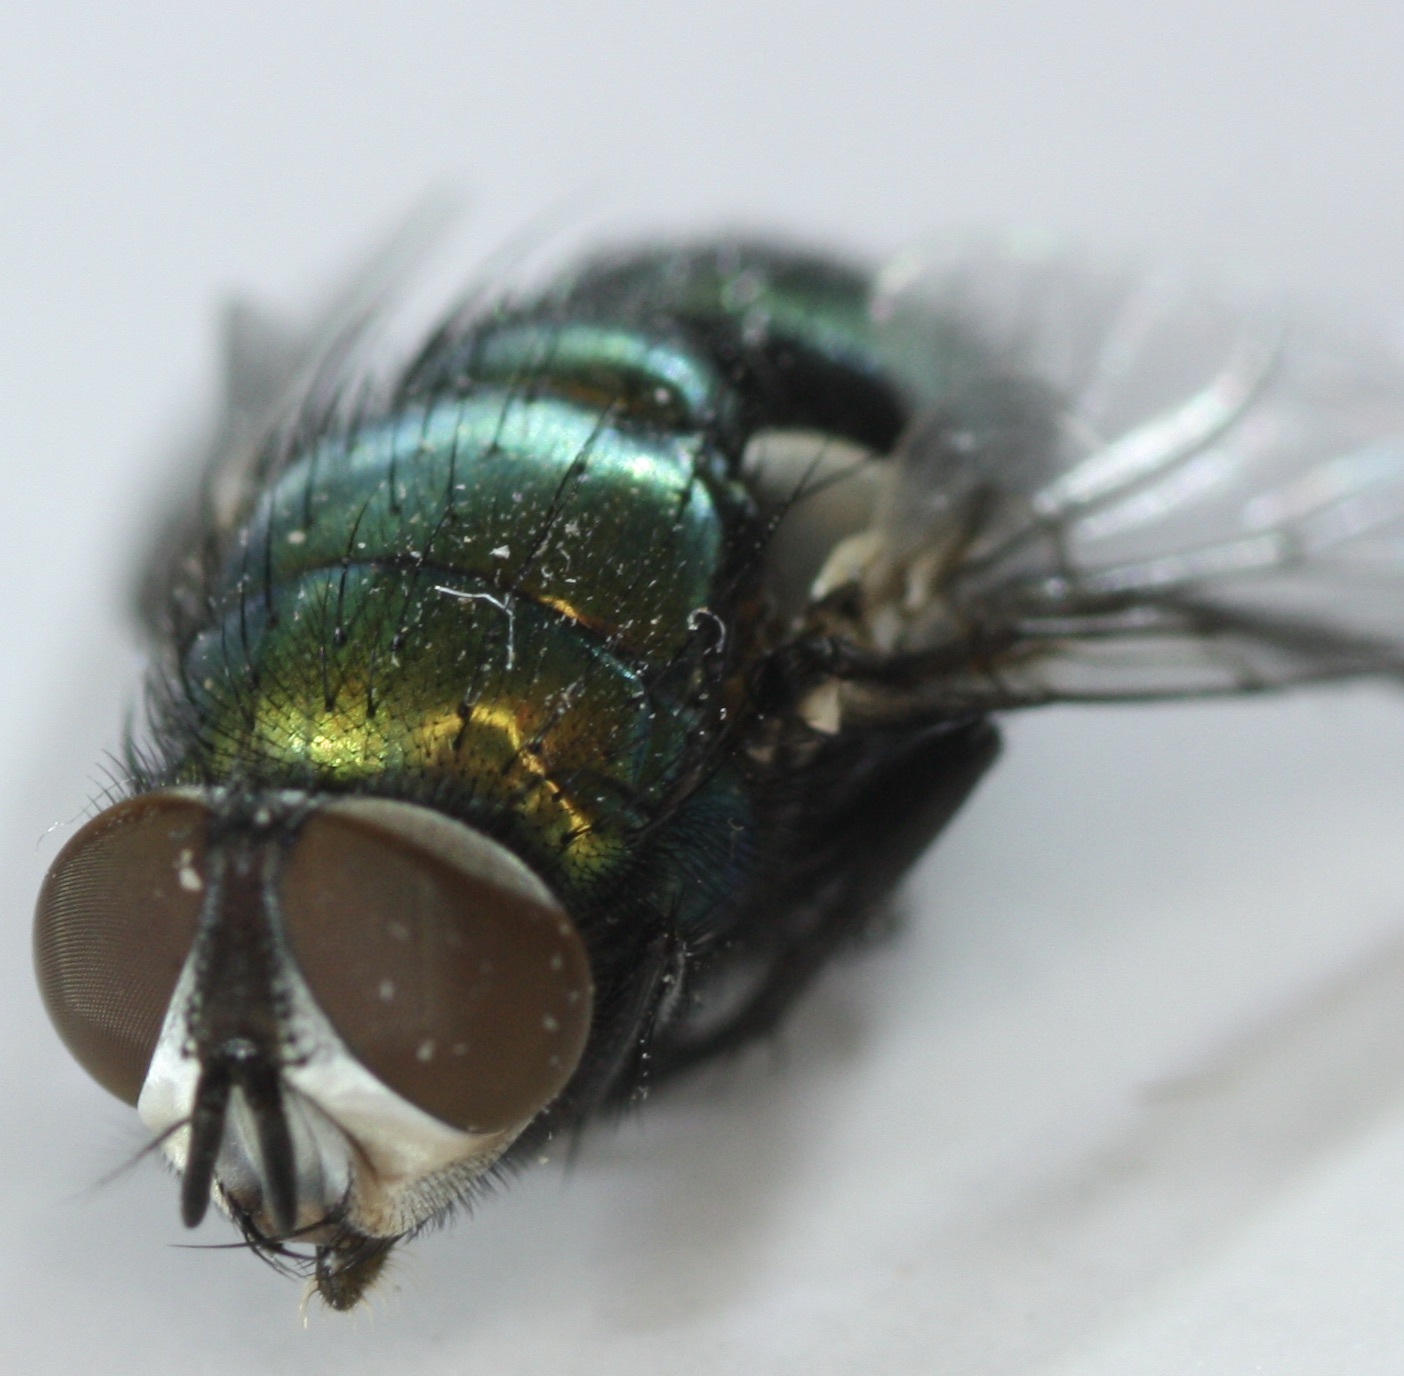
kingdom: Animalia
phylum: Arthropoda
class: Insecta
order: Diptera
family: Calliphoridae
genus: Lucilia
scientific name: Lucilia sericata
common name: Blow fly
